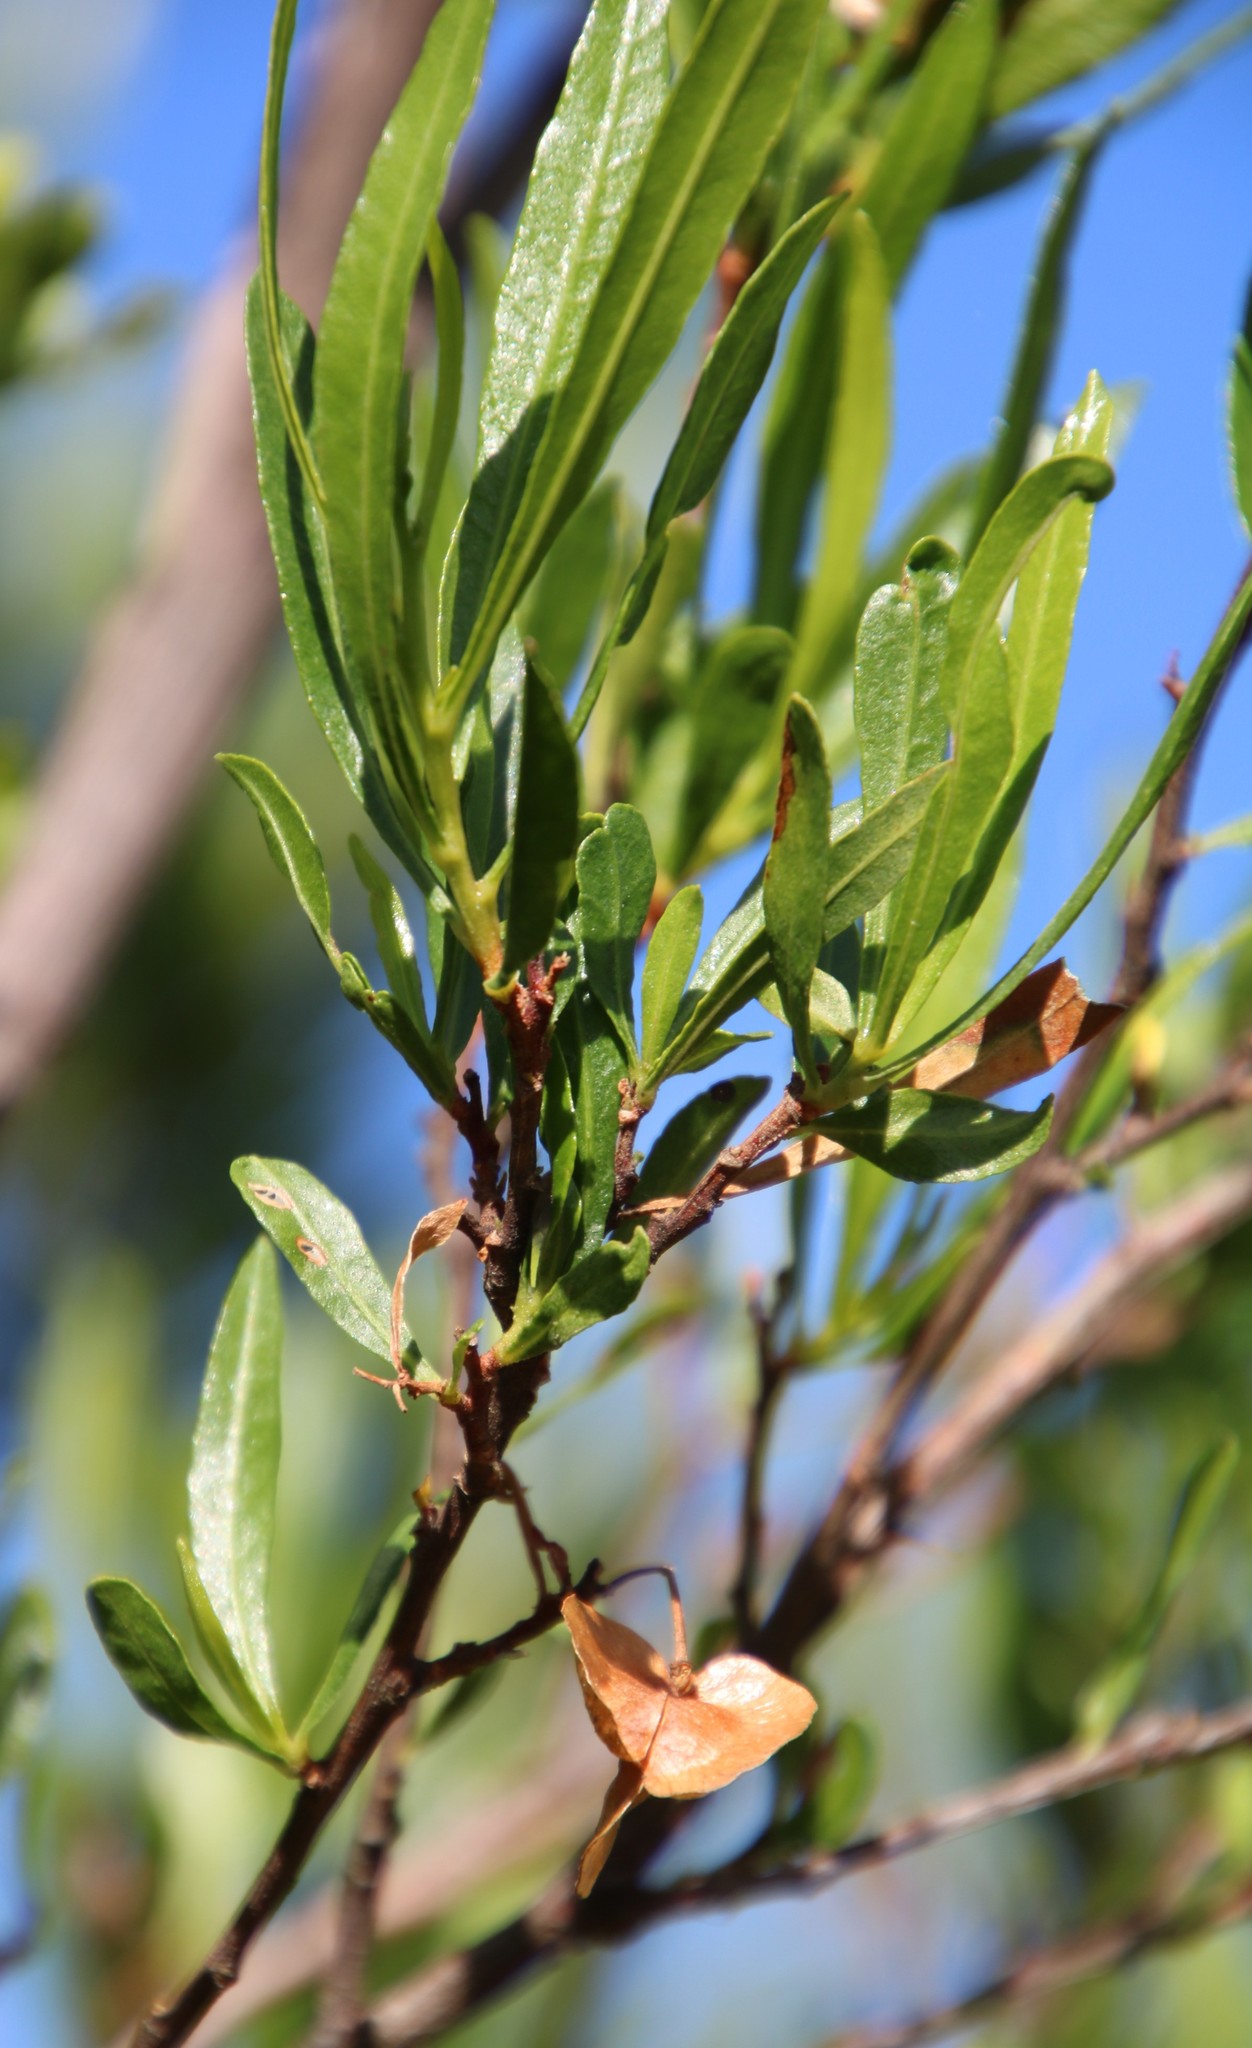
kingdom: Plantae
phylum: Tracheophyta
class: Magnoliopsida
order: Sapindales
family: Sapindaceae
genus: Dodonaea
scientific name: Dodonaea viscosa
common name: Hopbush
